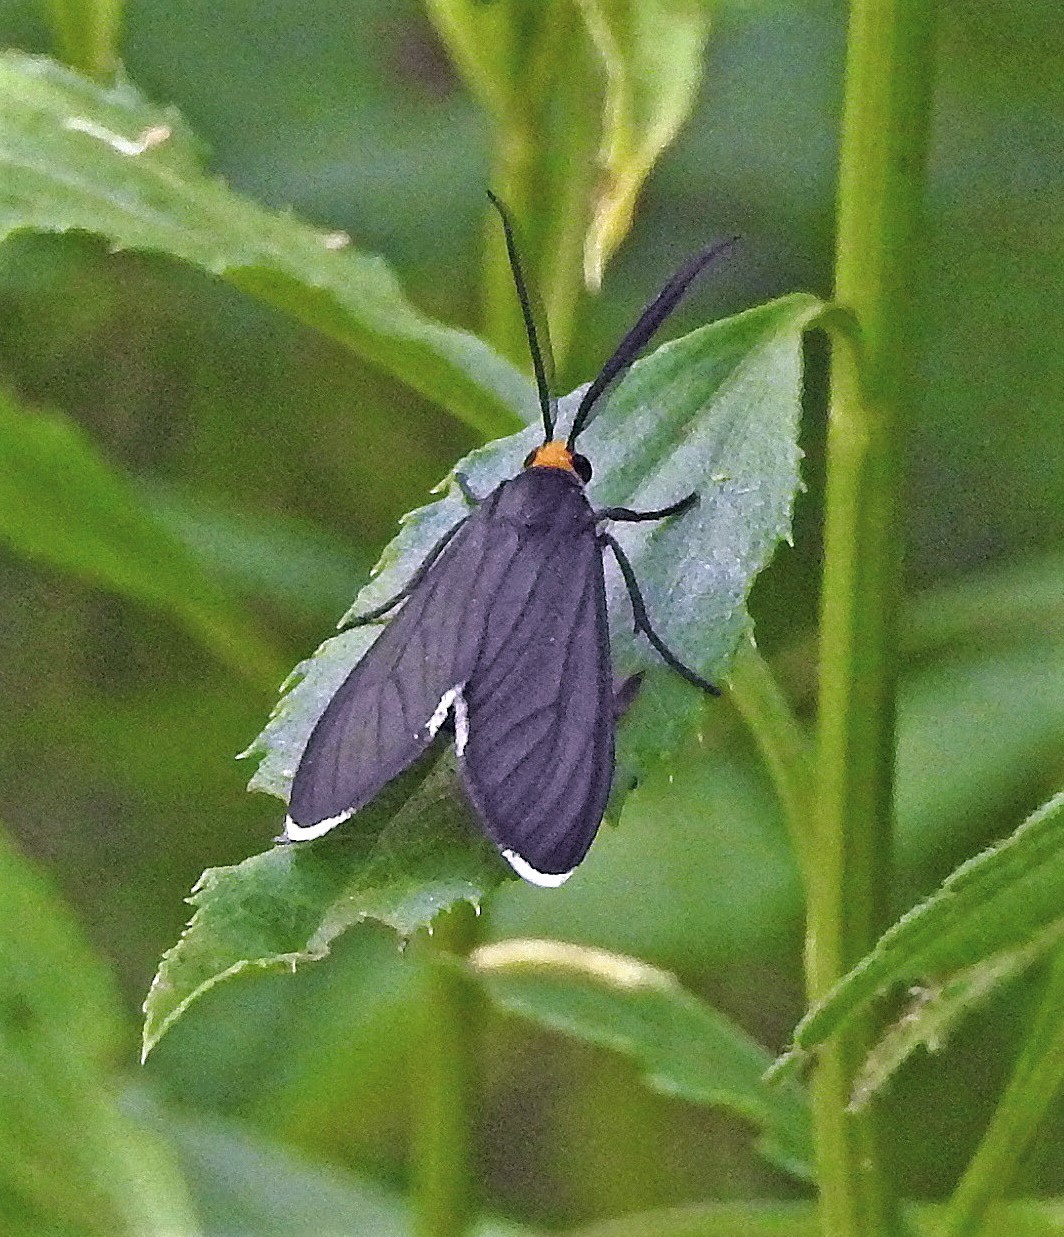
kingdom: Animalia
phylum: Arthropoda
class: Insecta
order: Lepidoptera
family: Erebidae
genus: Ctenucha
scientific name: Ctenucha rubriceps
